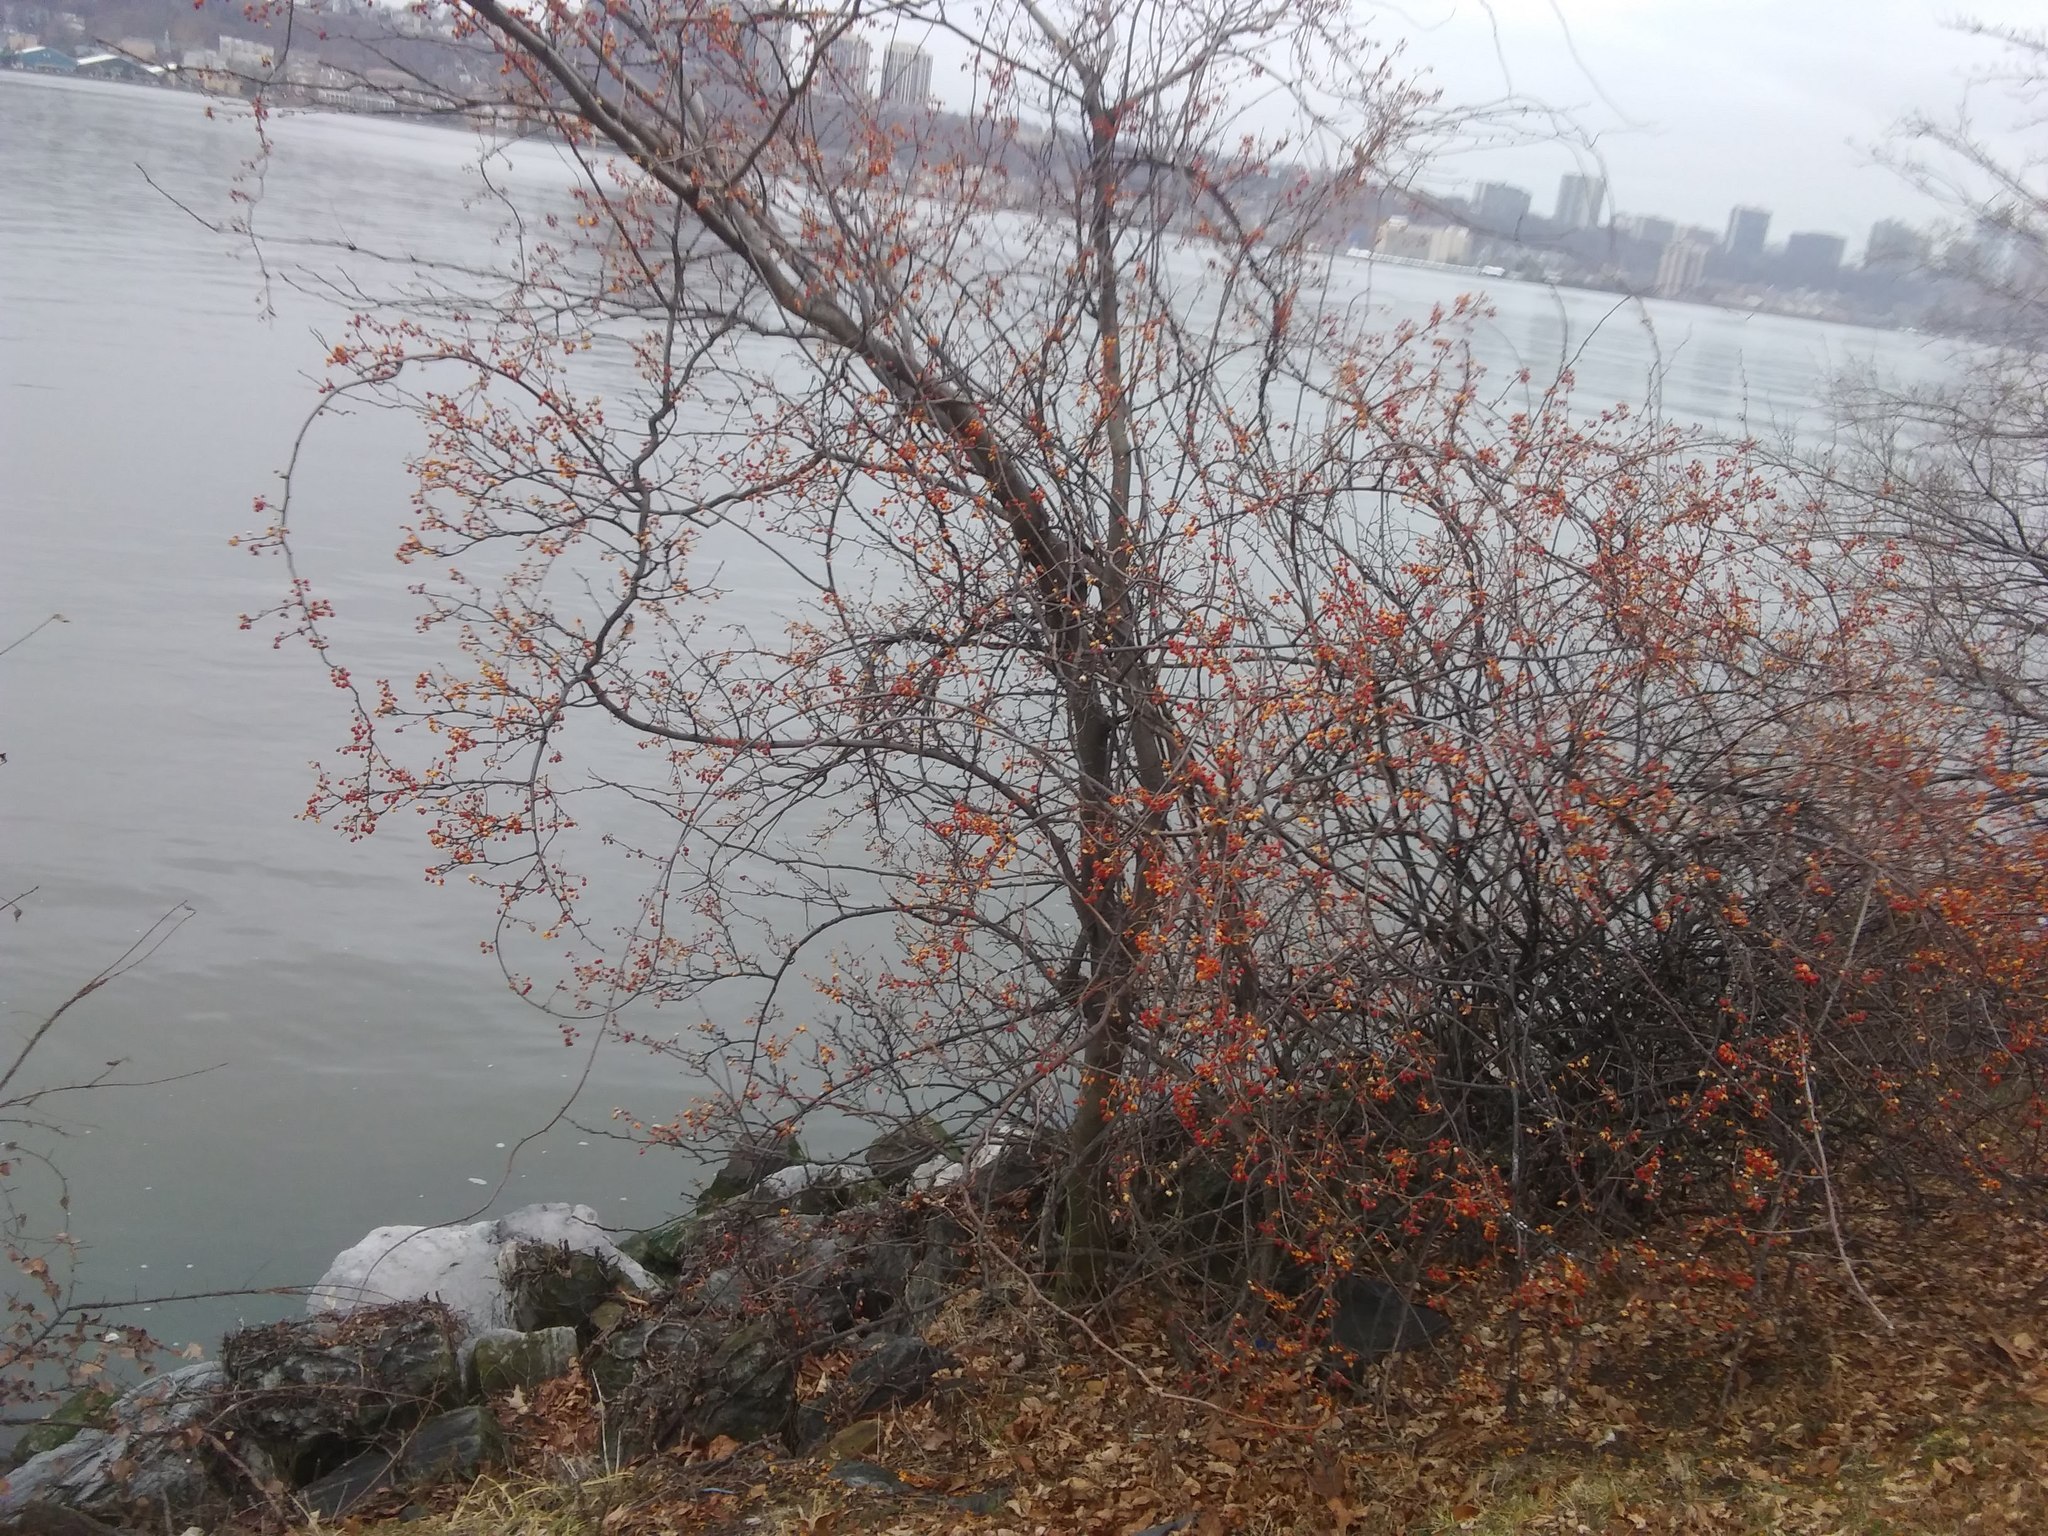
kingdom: Plantae
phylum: Tracheophyta
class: Magnoliopsida
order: Celastrales
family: Celastraceae
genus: Celastrus
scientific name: Celastrus orbiculatus
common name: Oriental bittersweet
